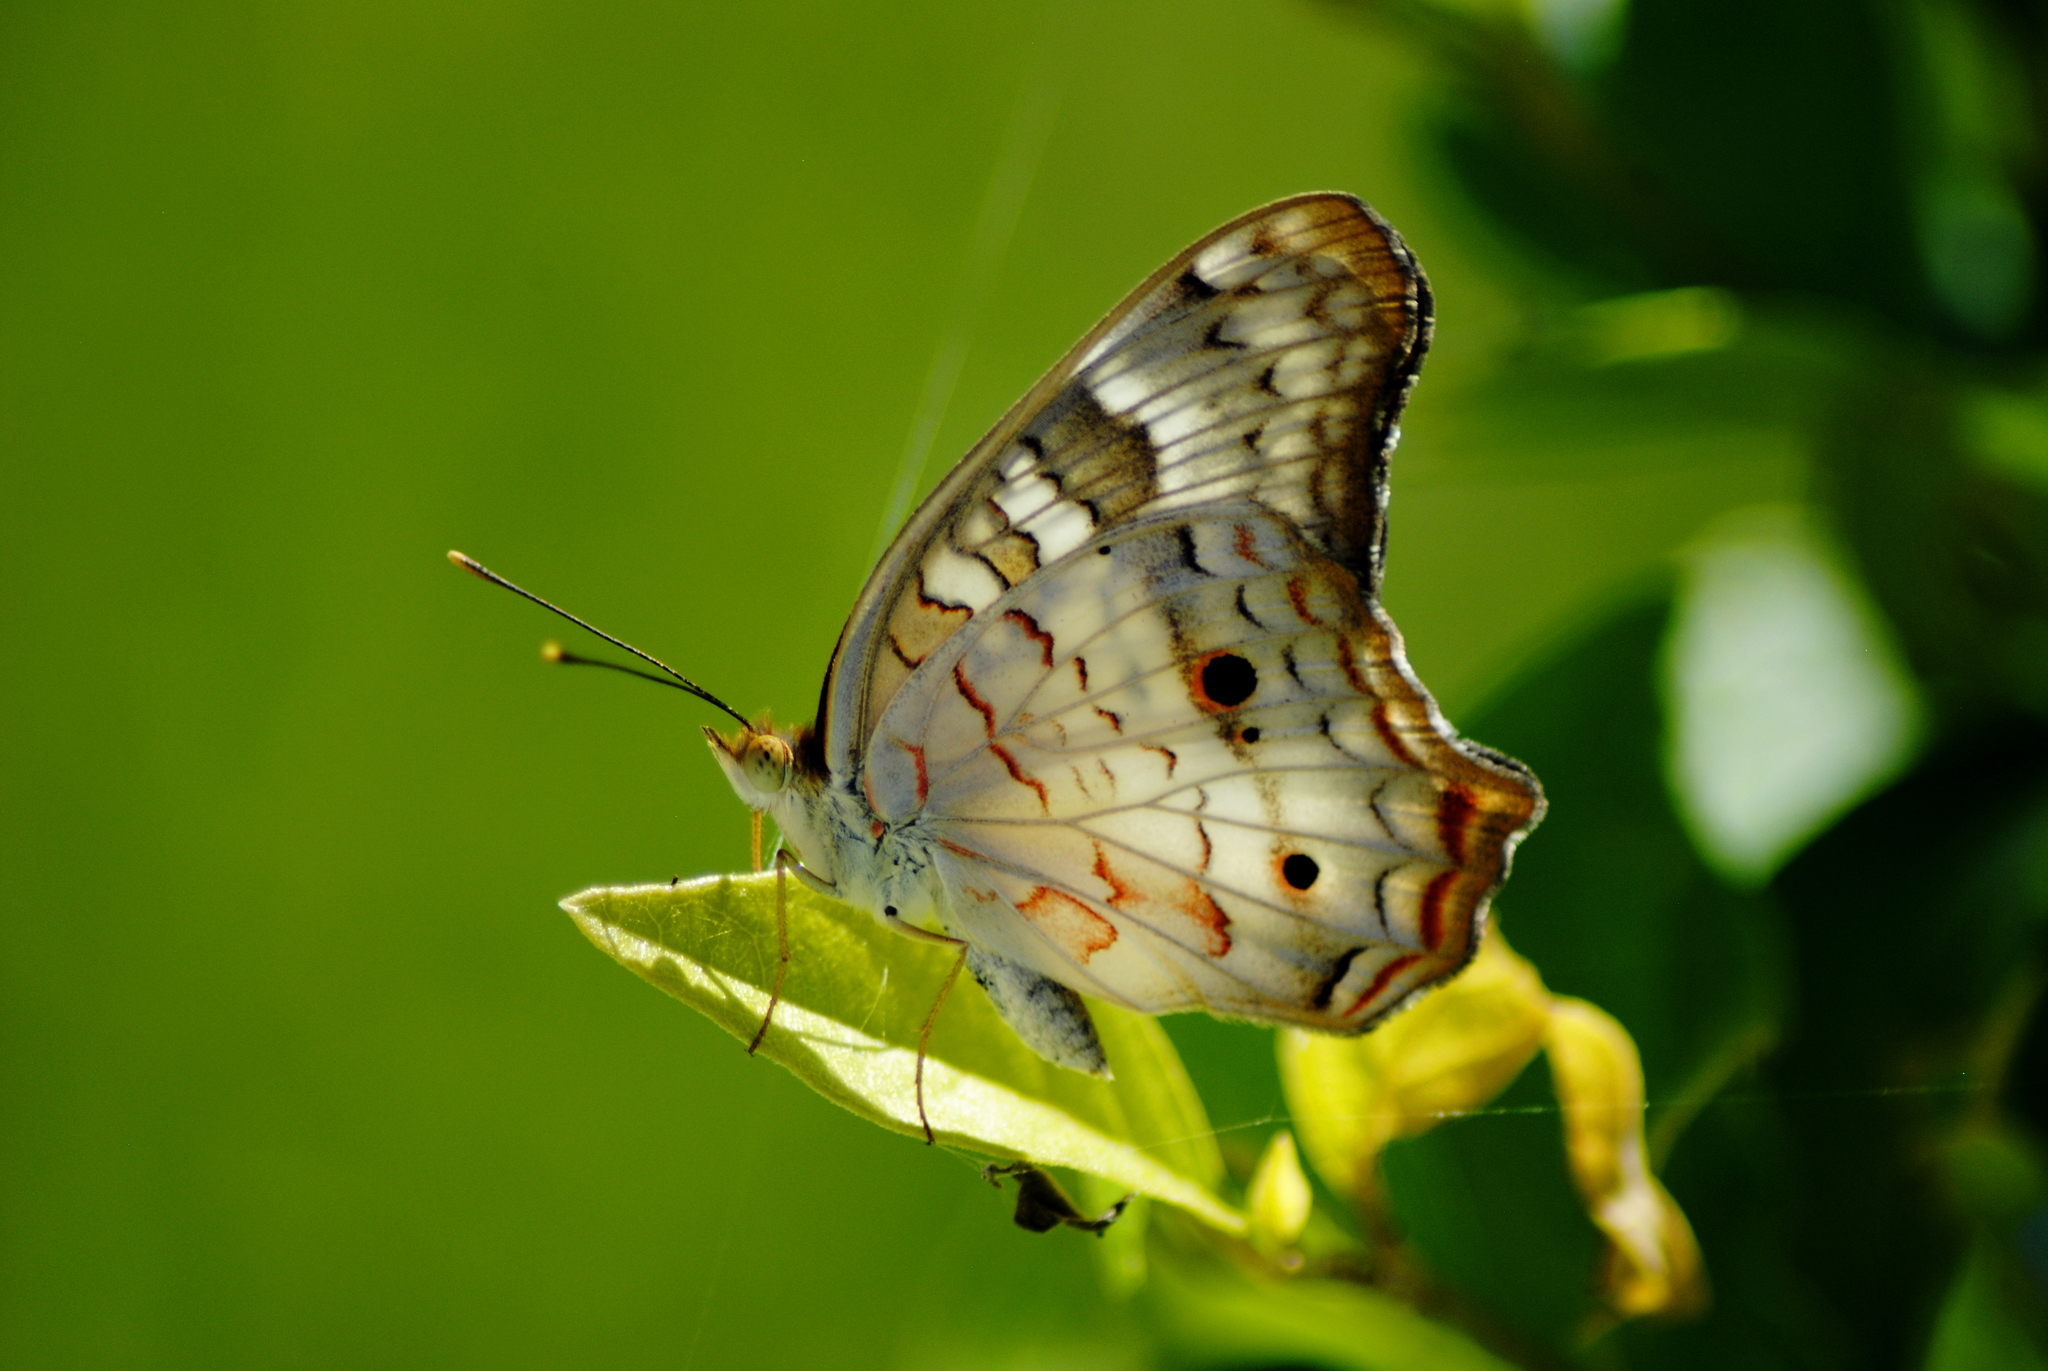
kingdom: Animalia
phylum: Arthropoda
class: Insecta
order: Lepidoptera
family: Nymphalidae
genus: Anartia
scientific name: Anartia jatrophae
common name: White peacock
